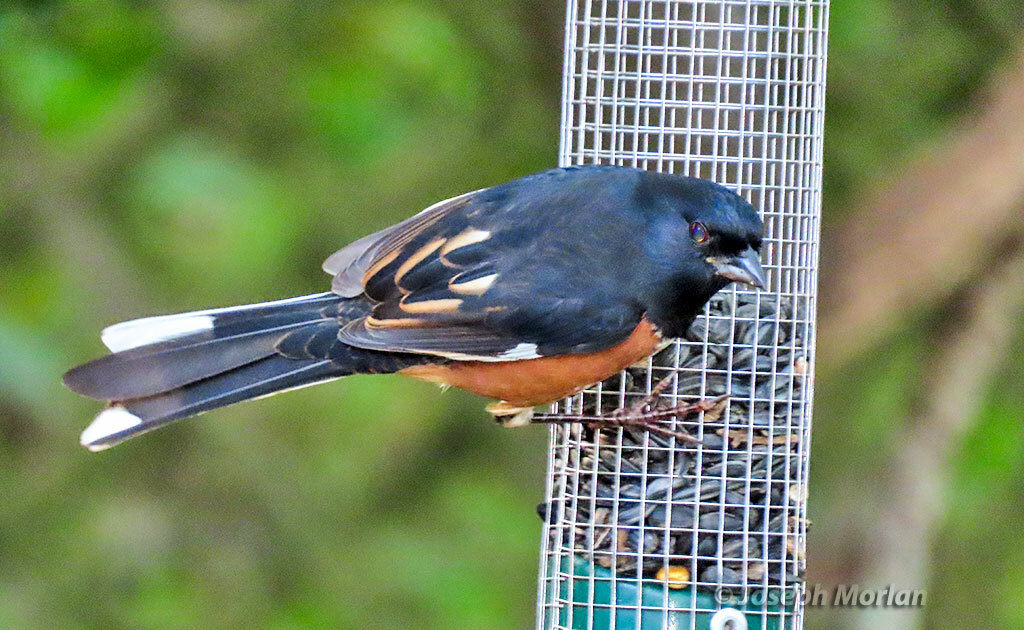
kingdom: Animalia
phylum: Chordata
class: Aves
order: Passeriformes
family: Passerellidae
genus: Pipilo
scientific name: Pipilo erythrophthalmus
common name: Eastern towhee
